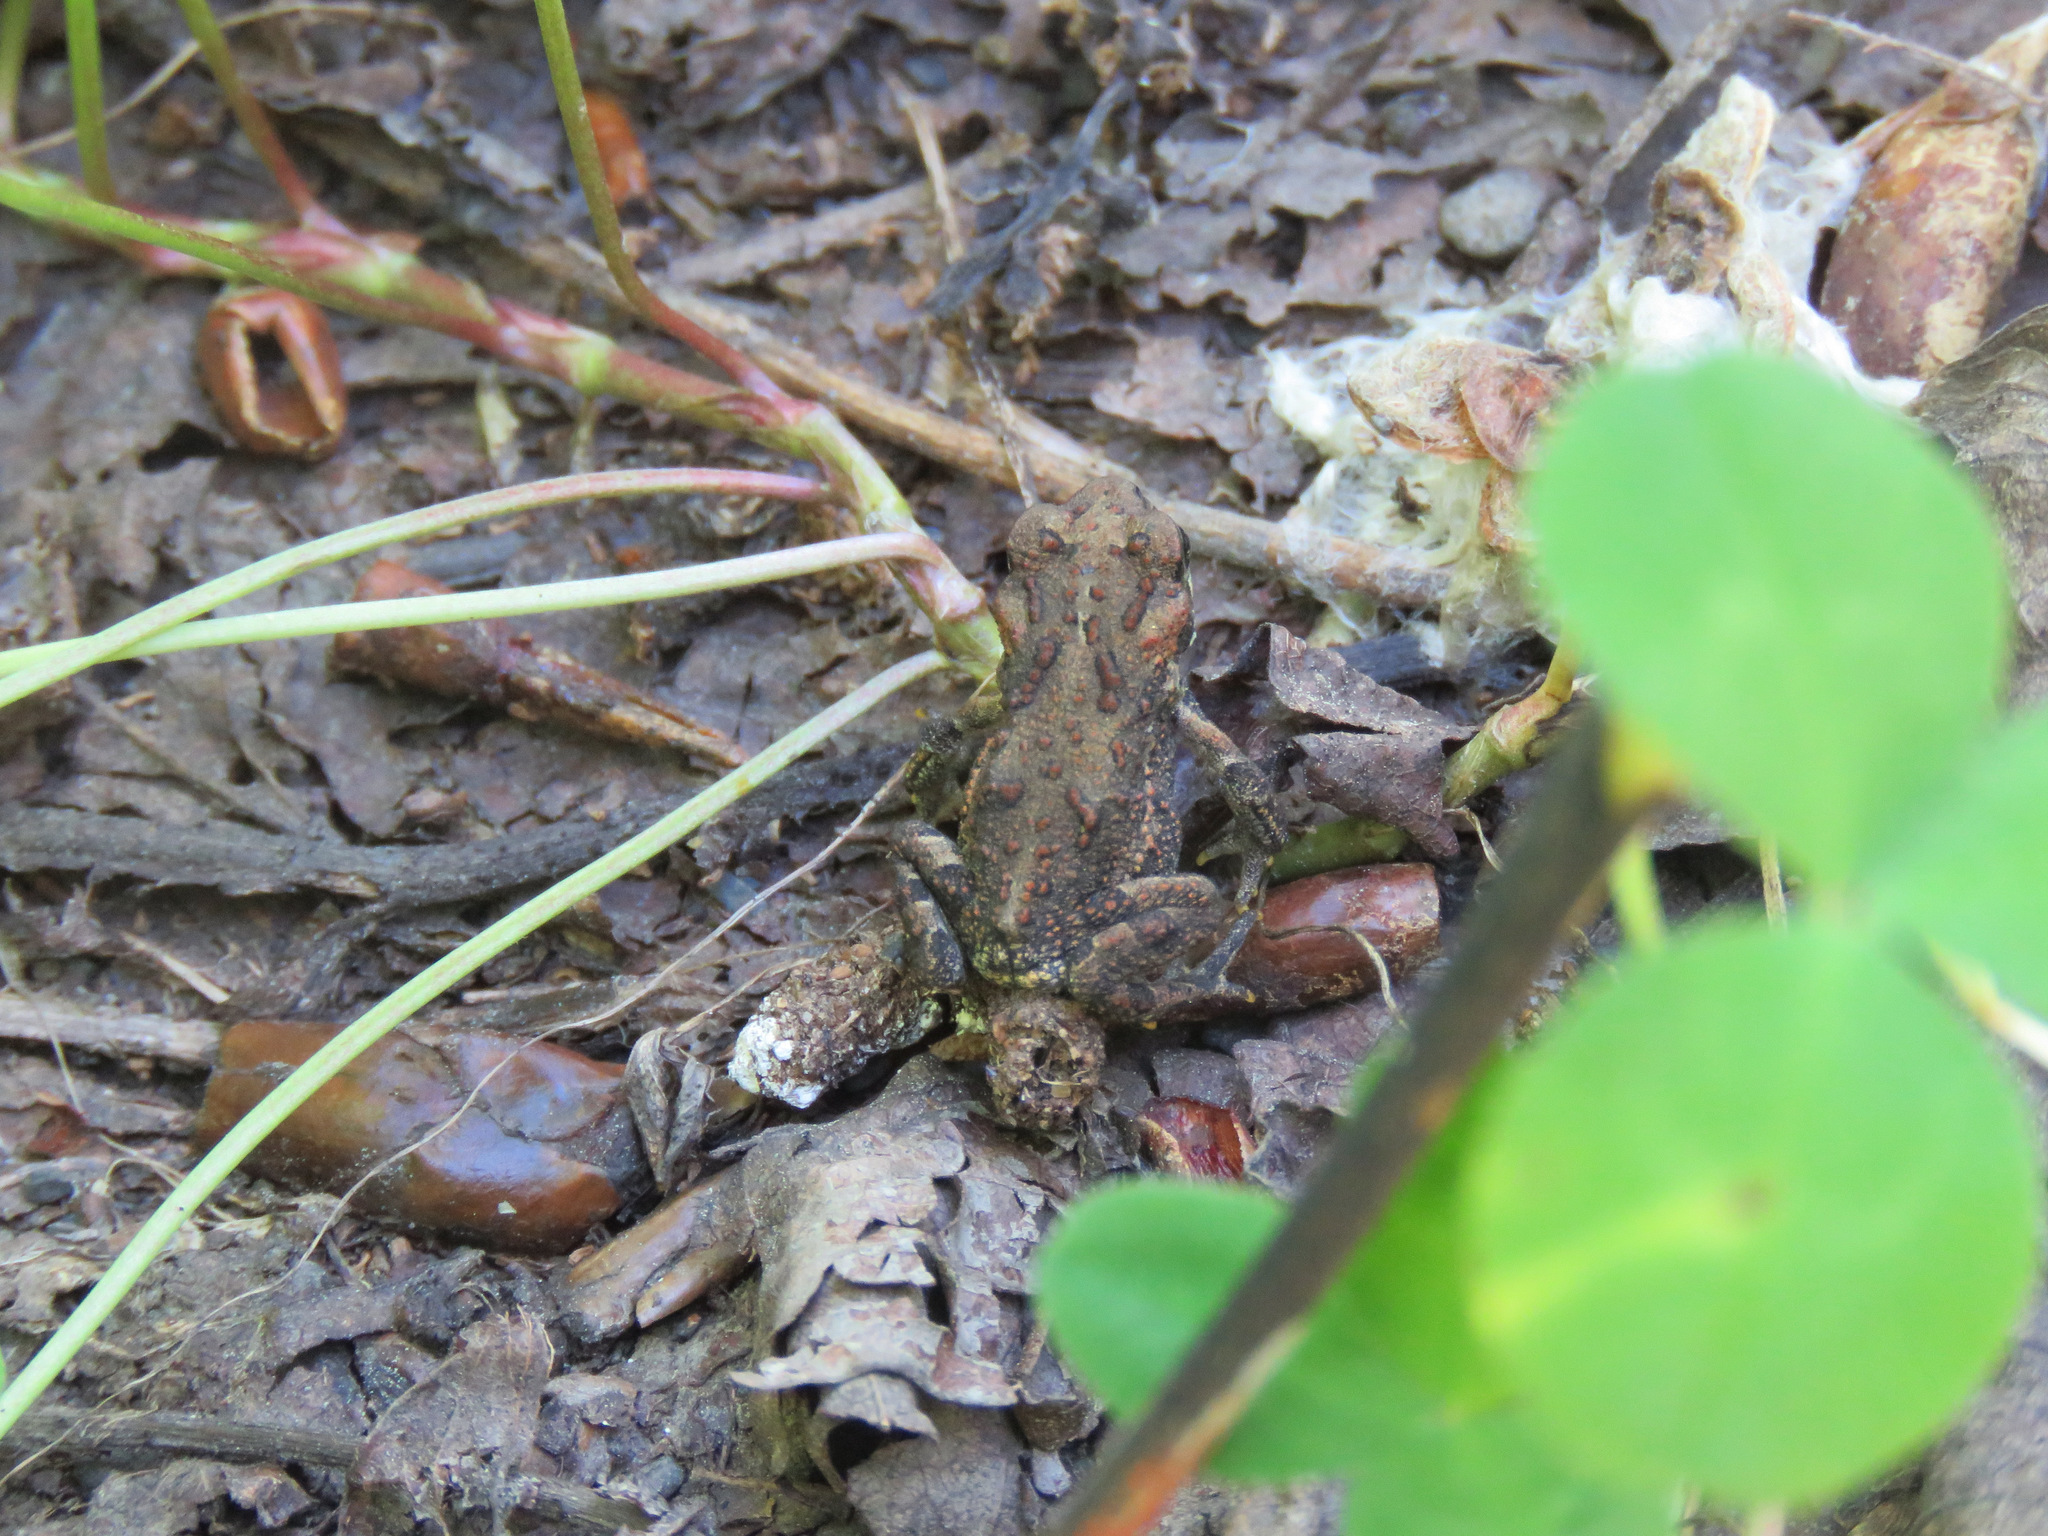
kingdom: Animalia
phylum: Chordata
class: Amphibia
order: Anura
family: Bufonidae
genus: Anaxyrus
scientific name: Anaxyrus boreas
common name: Western toad
